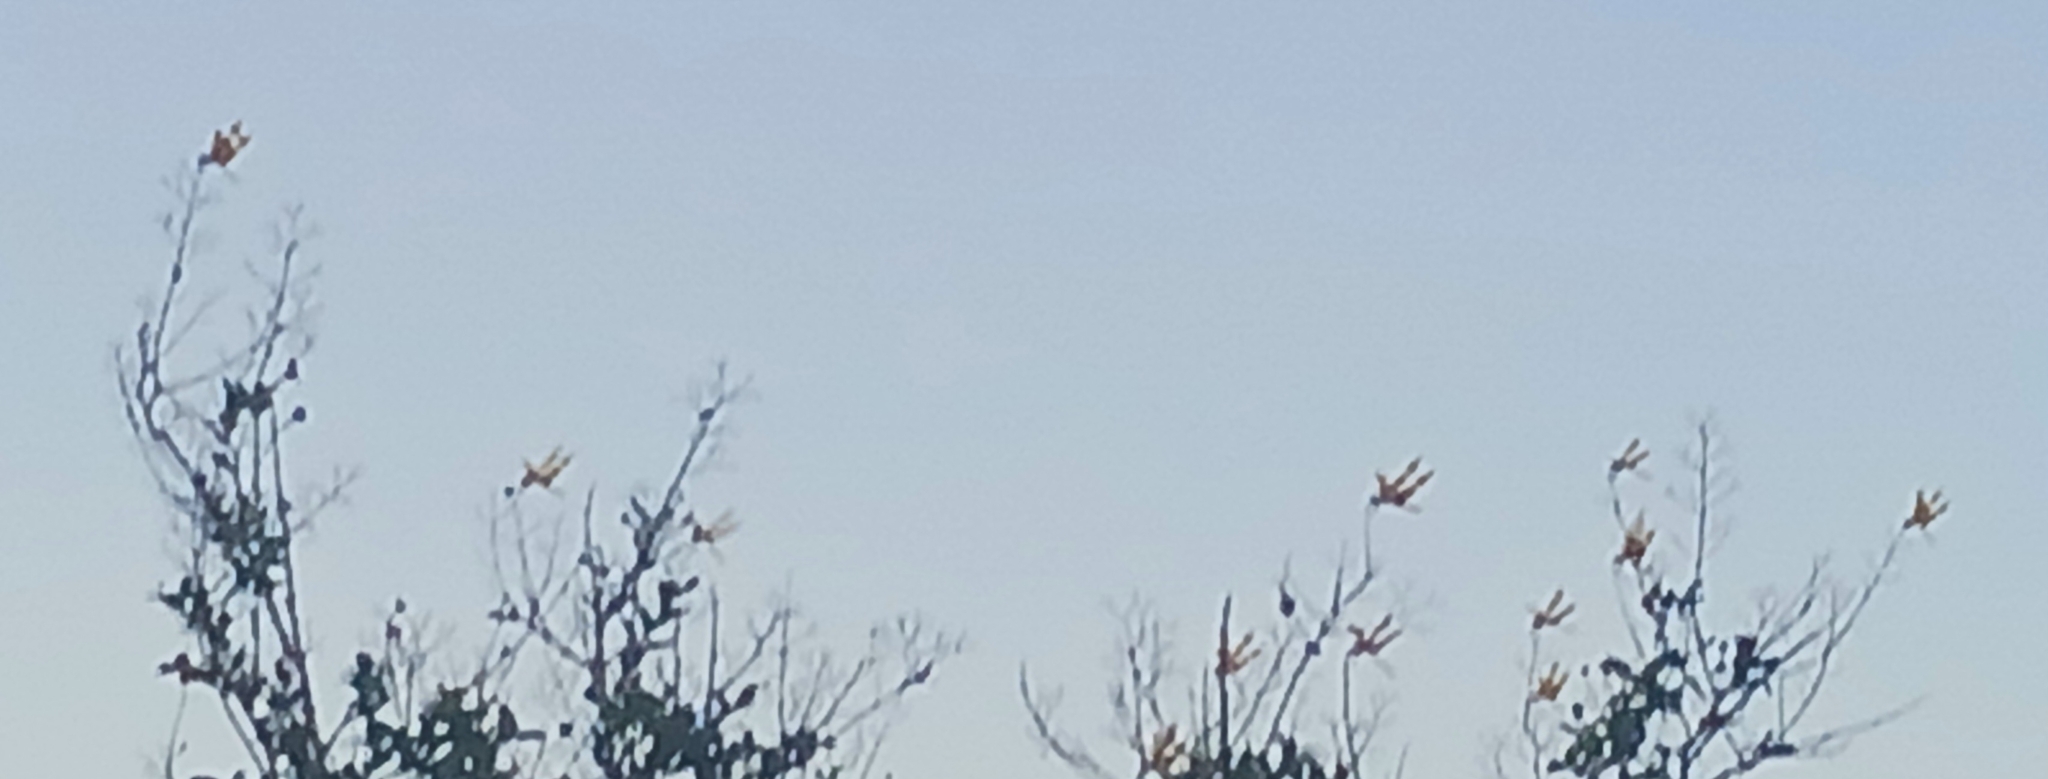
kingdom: Animalia
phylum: Arthropoda
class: Insecta
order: Odonata
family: Libellulidae
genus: Celithemis
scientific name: Celithemis eponina
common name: Halloween pennant
